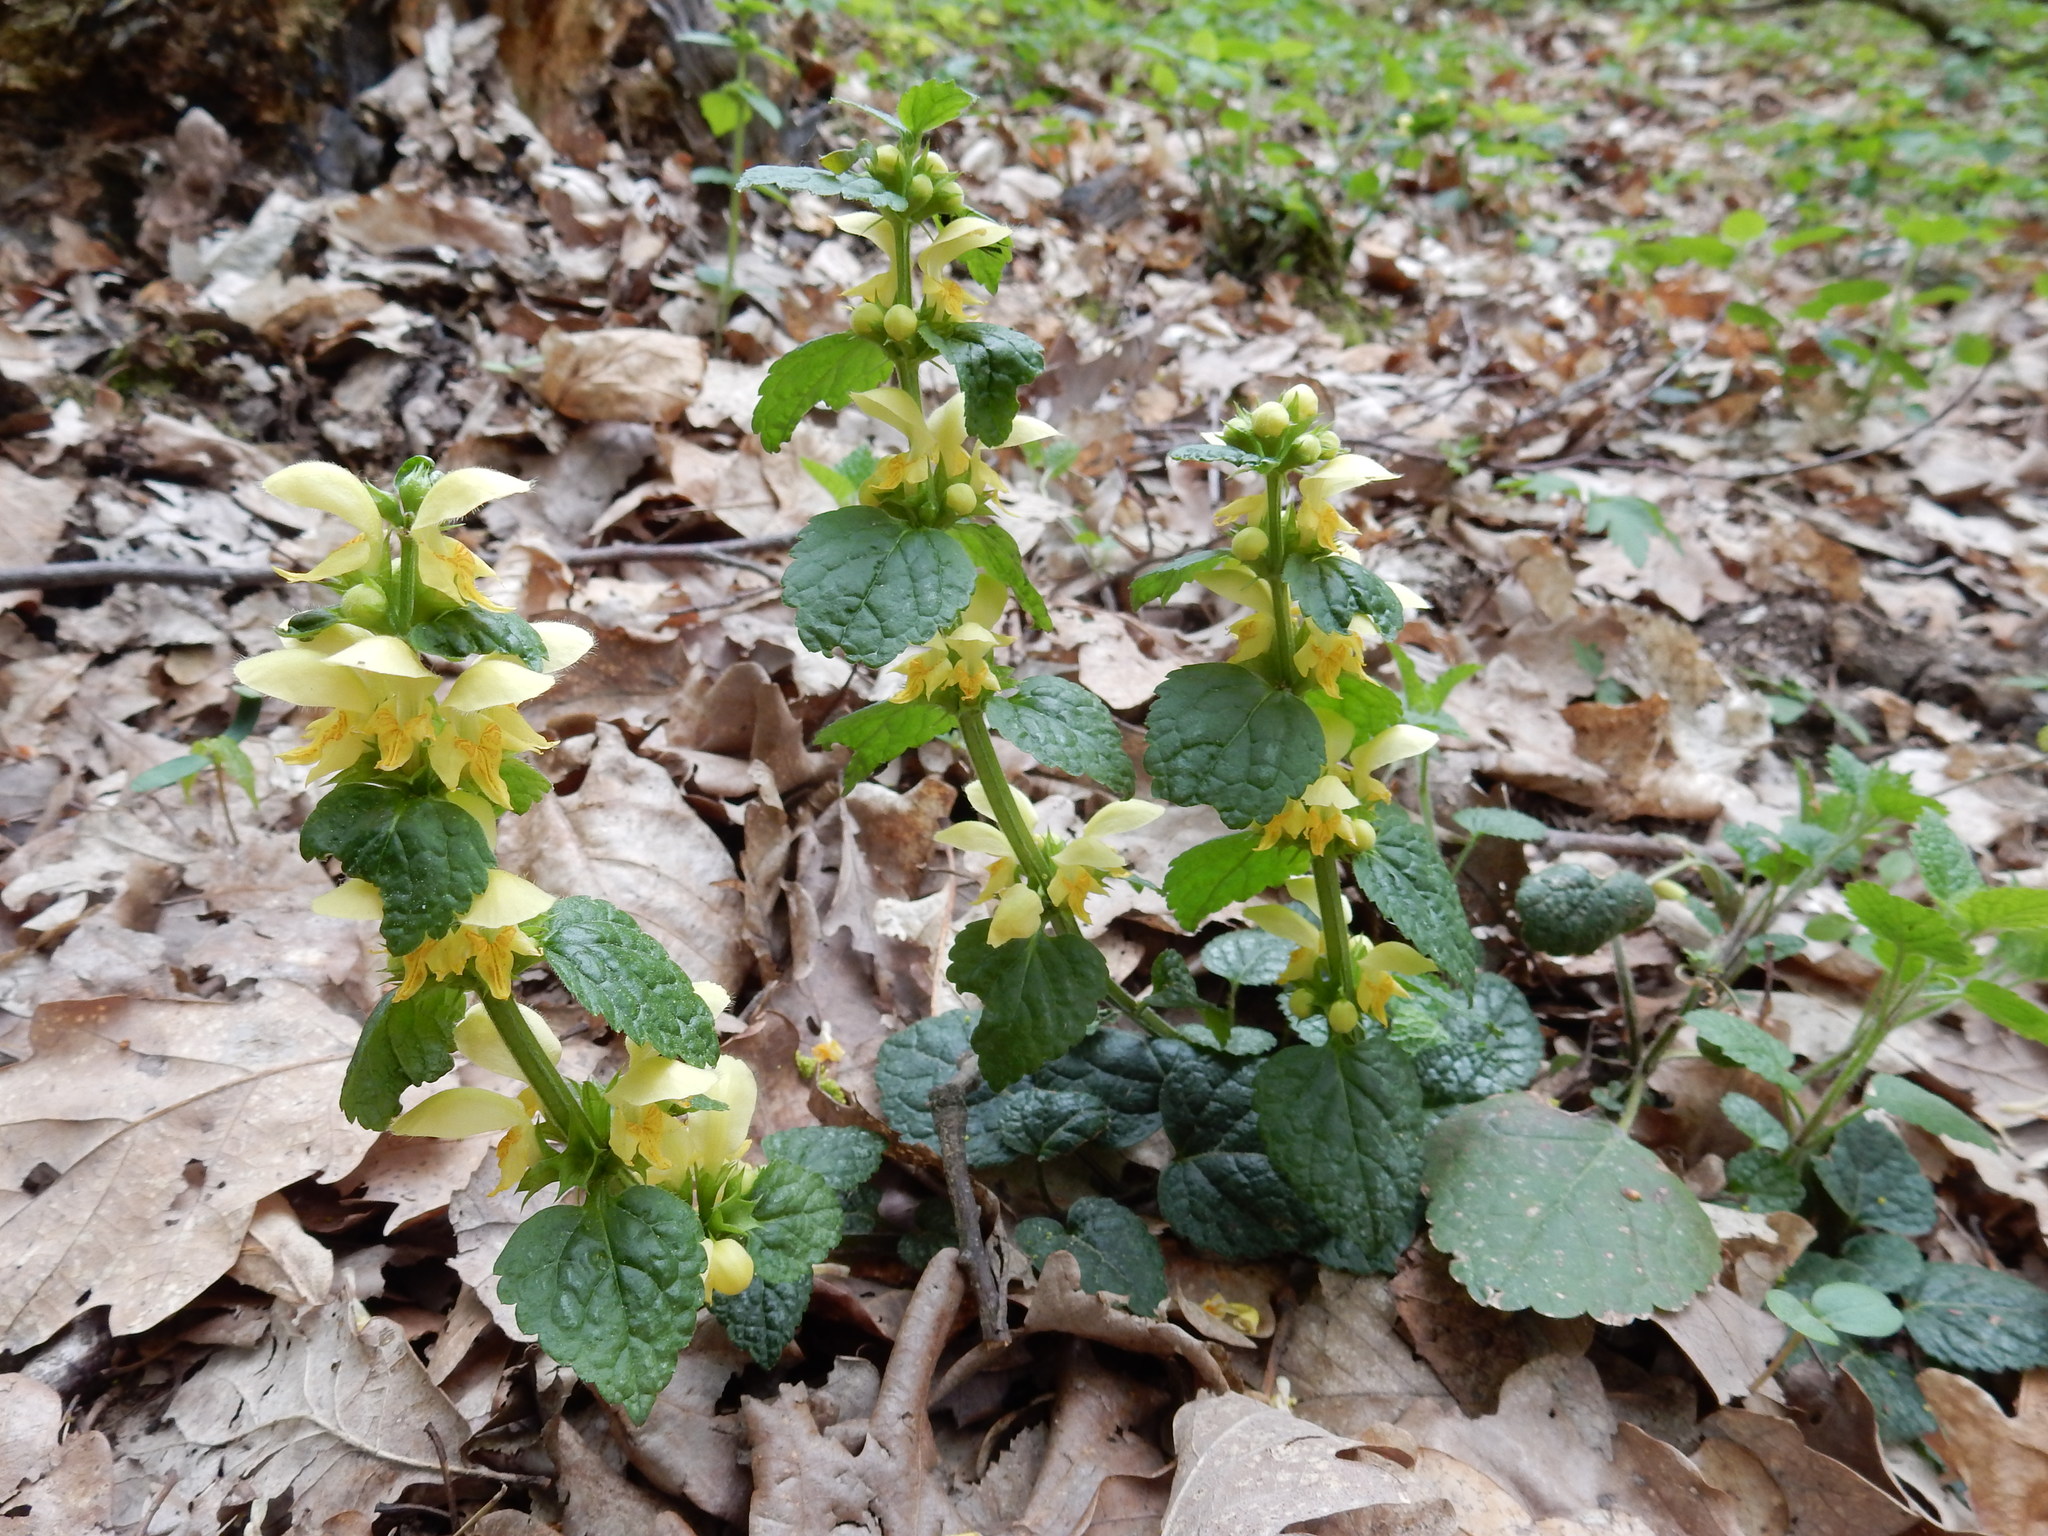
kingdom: Plantae
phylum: Tracheophyta
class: Magnoliopsida
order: Lamiales
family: Lamiaceae
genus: Lamium
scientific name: Lamium galeobdolon
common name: Yellow archangel
